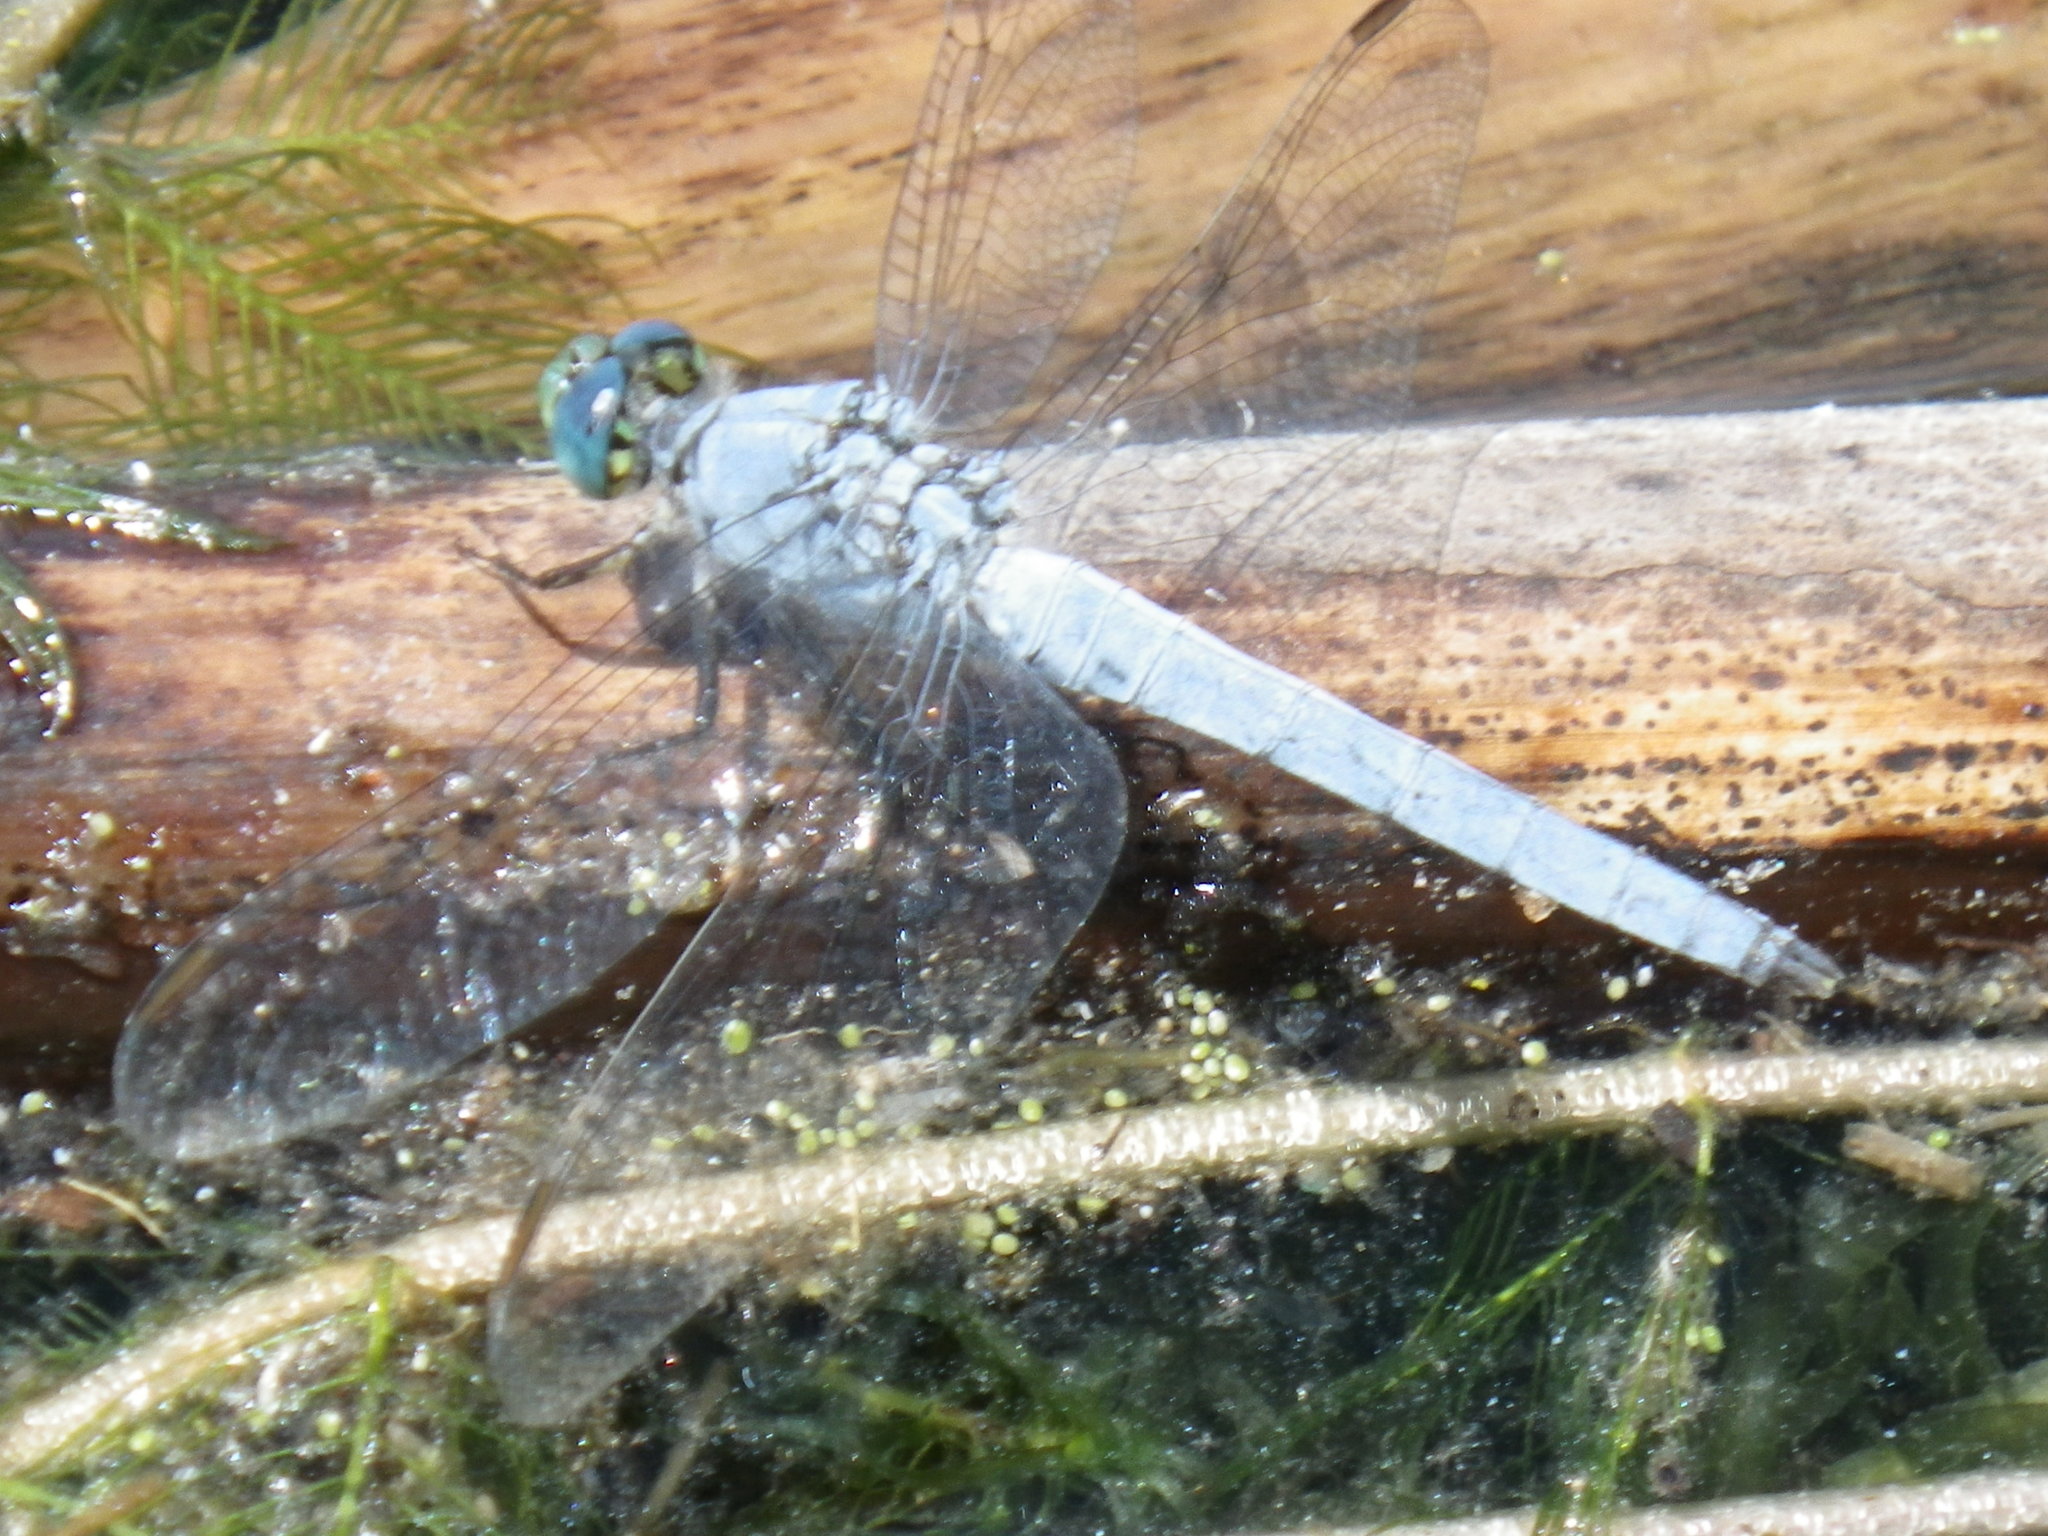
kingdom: Animalia
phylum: Arthropoda
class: Insecta
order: Odonata
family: Libellulidae
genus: Erythemis
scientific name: Erythemis collocata
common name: Western pondhawk
